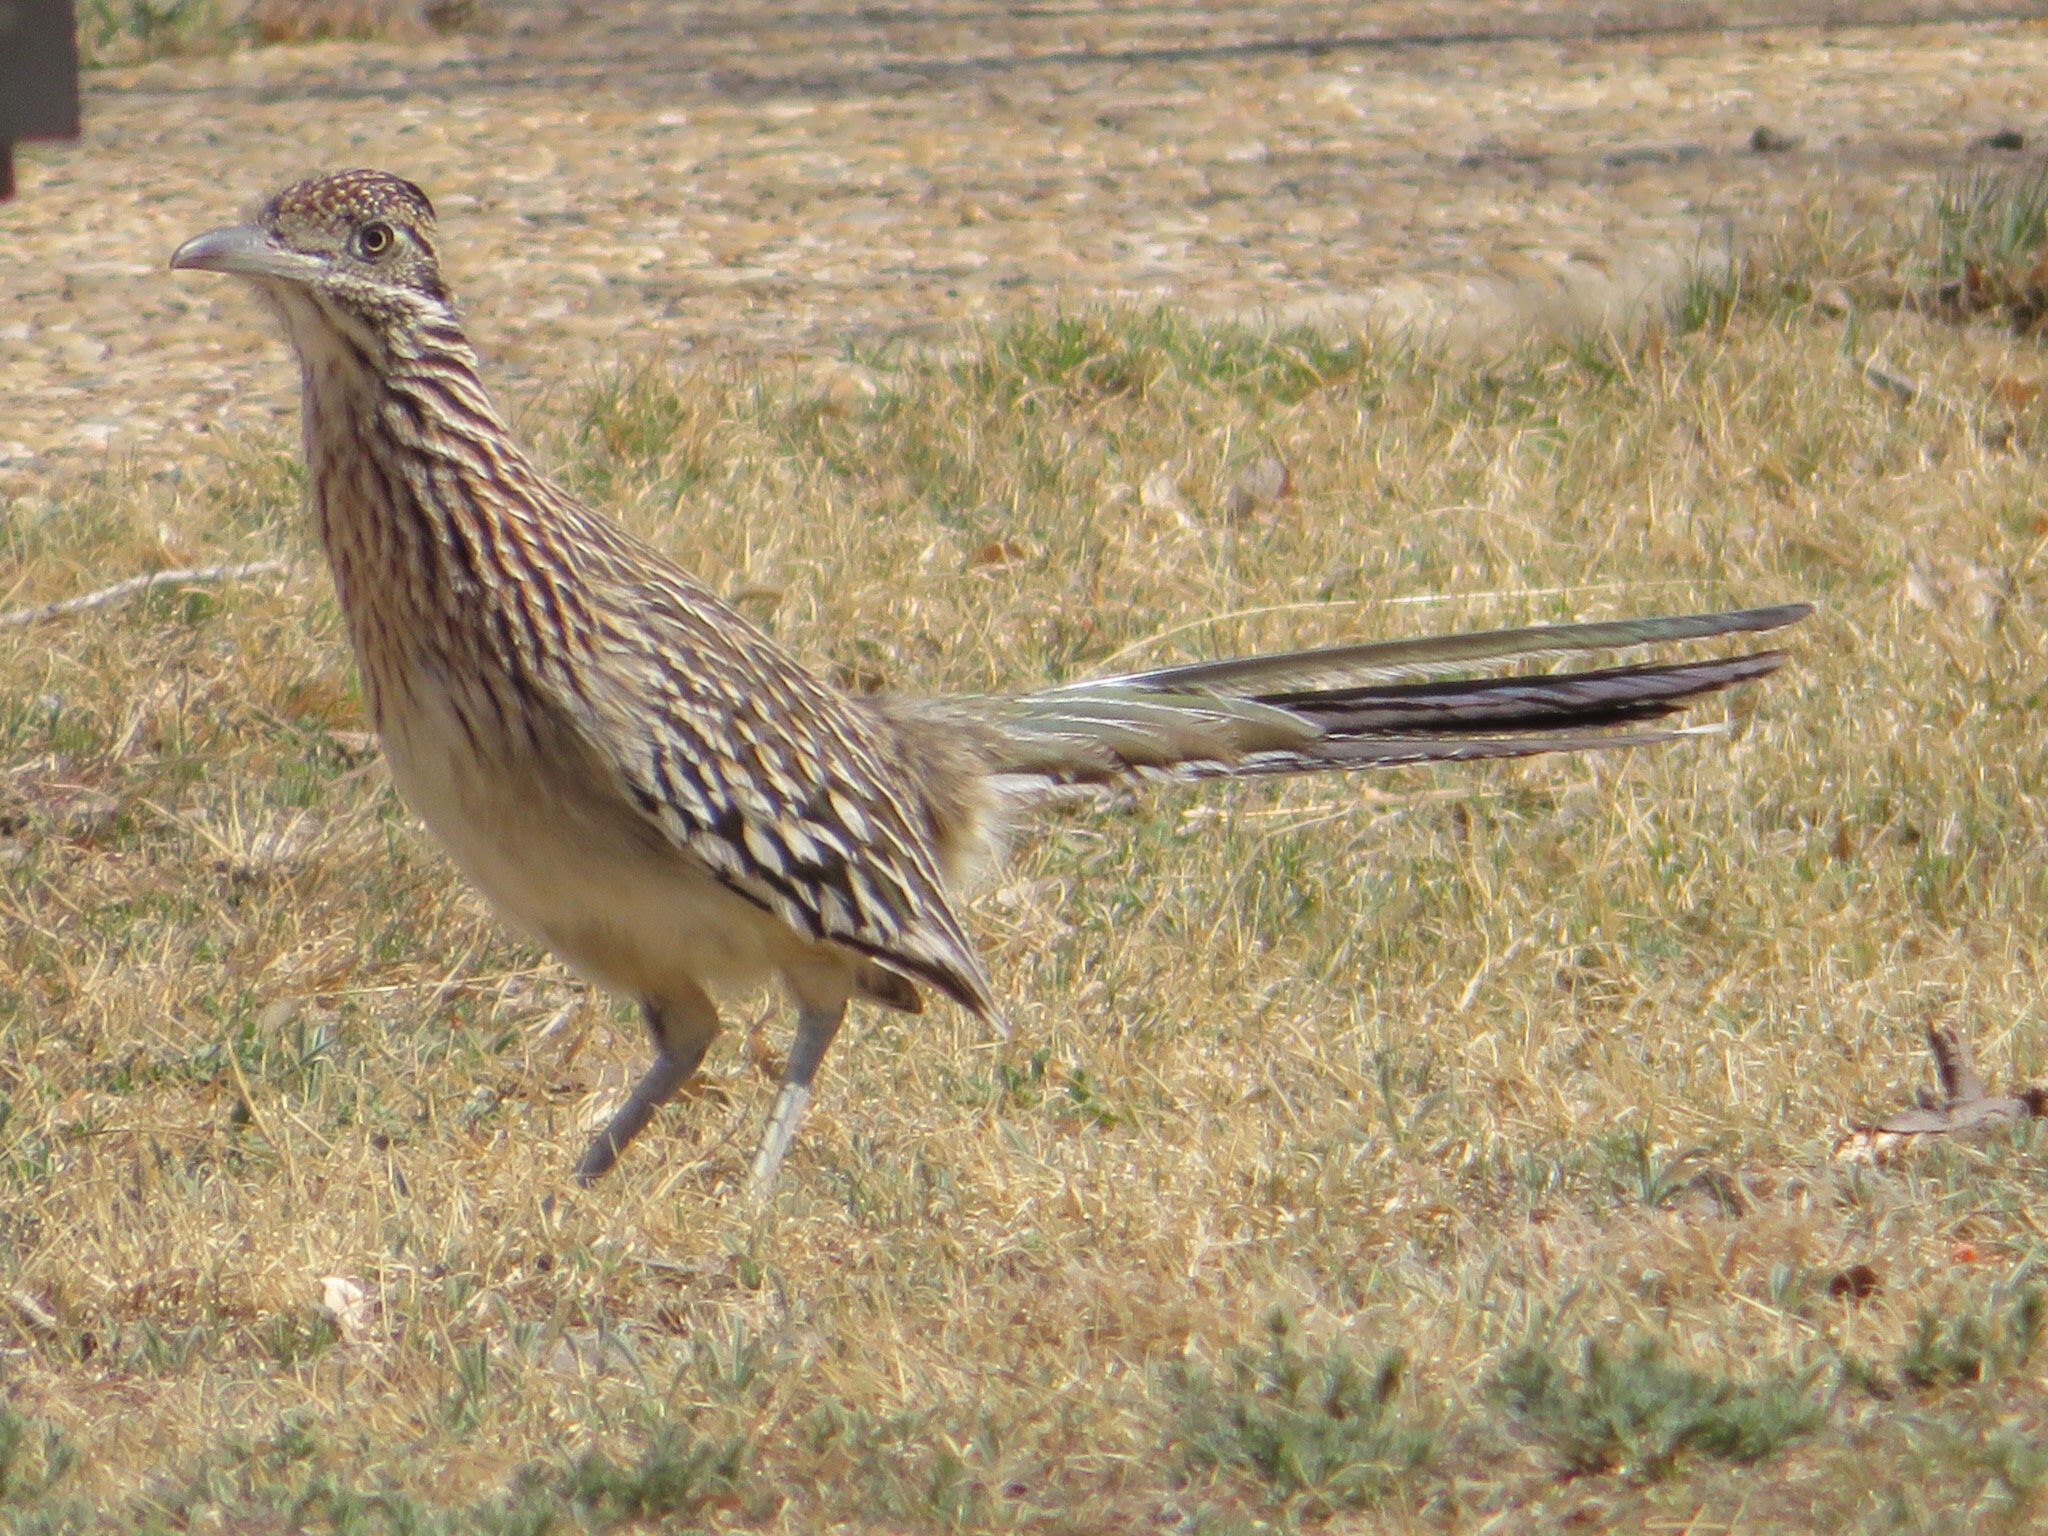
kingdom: Animalia
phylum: Chordata
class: Aves
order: Cuculiformes
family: Cuculidae
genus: Geococcyx
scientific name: Geococcyx californianus
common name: Greater roadrunner
